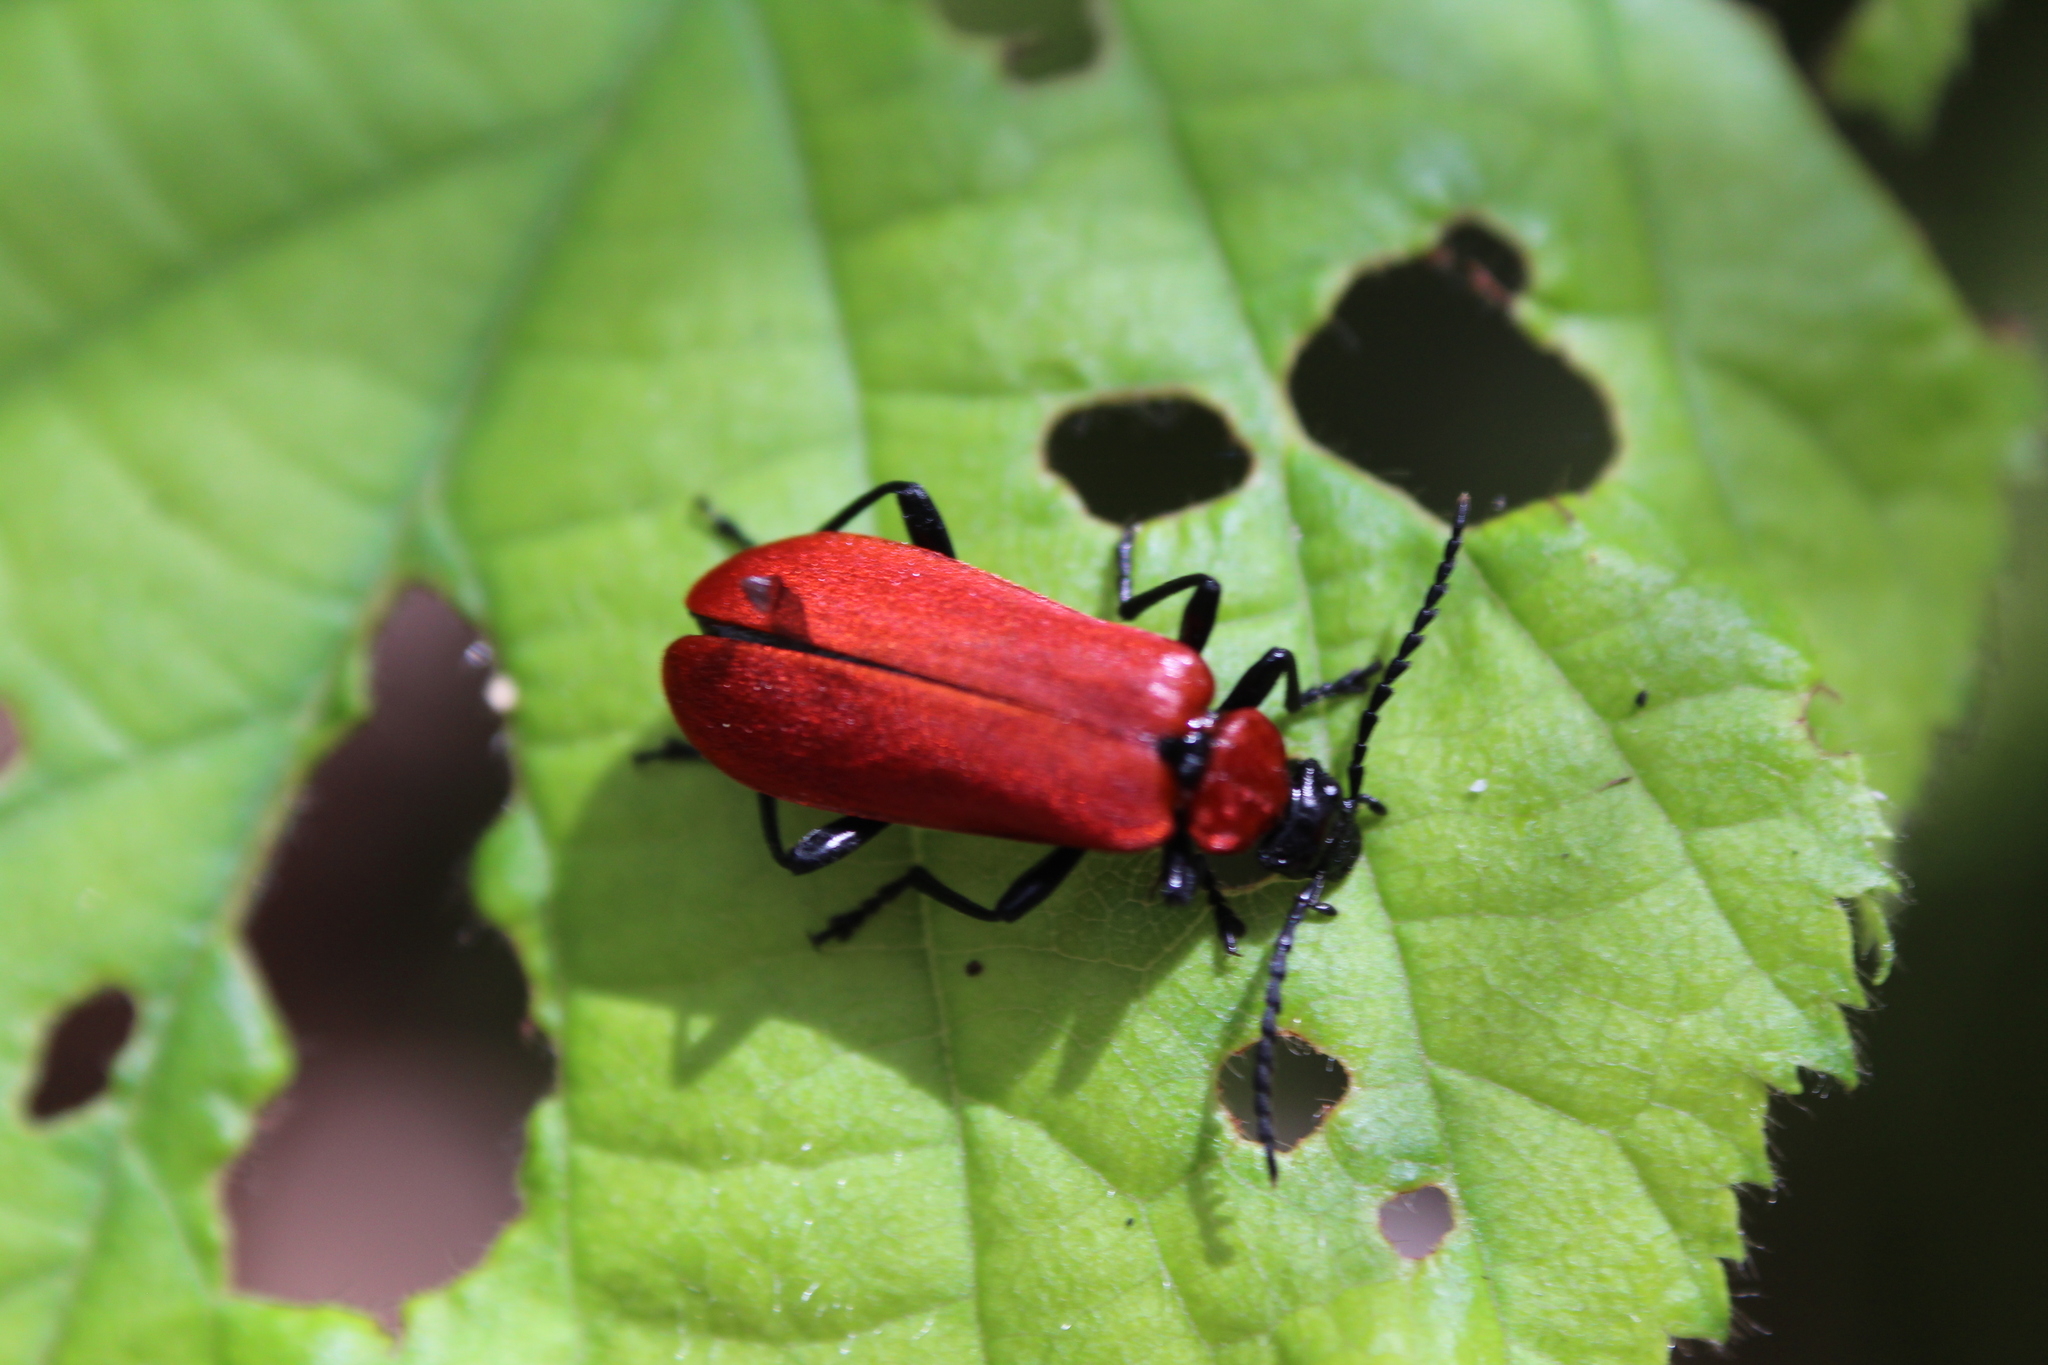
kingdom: Animalia
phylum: Arthropoda
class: Insecta
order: Coleoptera
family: Pyrochroidae
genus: Pyrochroa
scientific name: Pyrochroa coccinea
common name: Black-headed cardinal beetle
